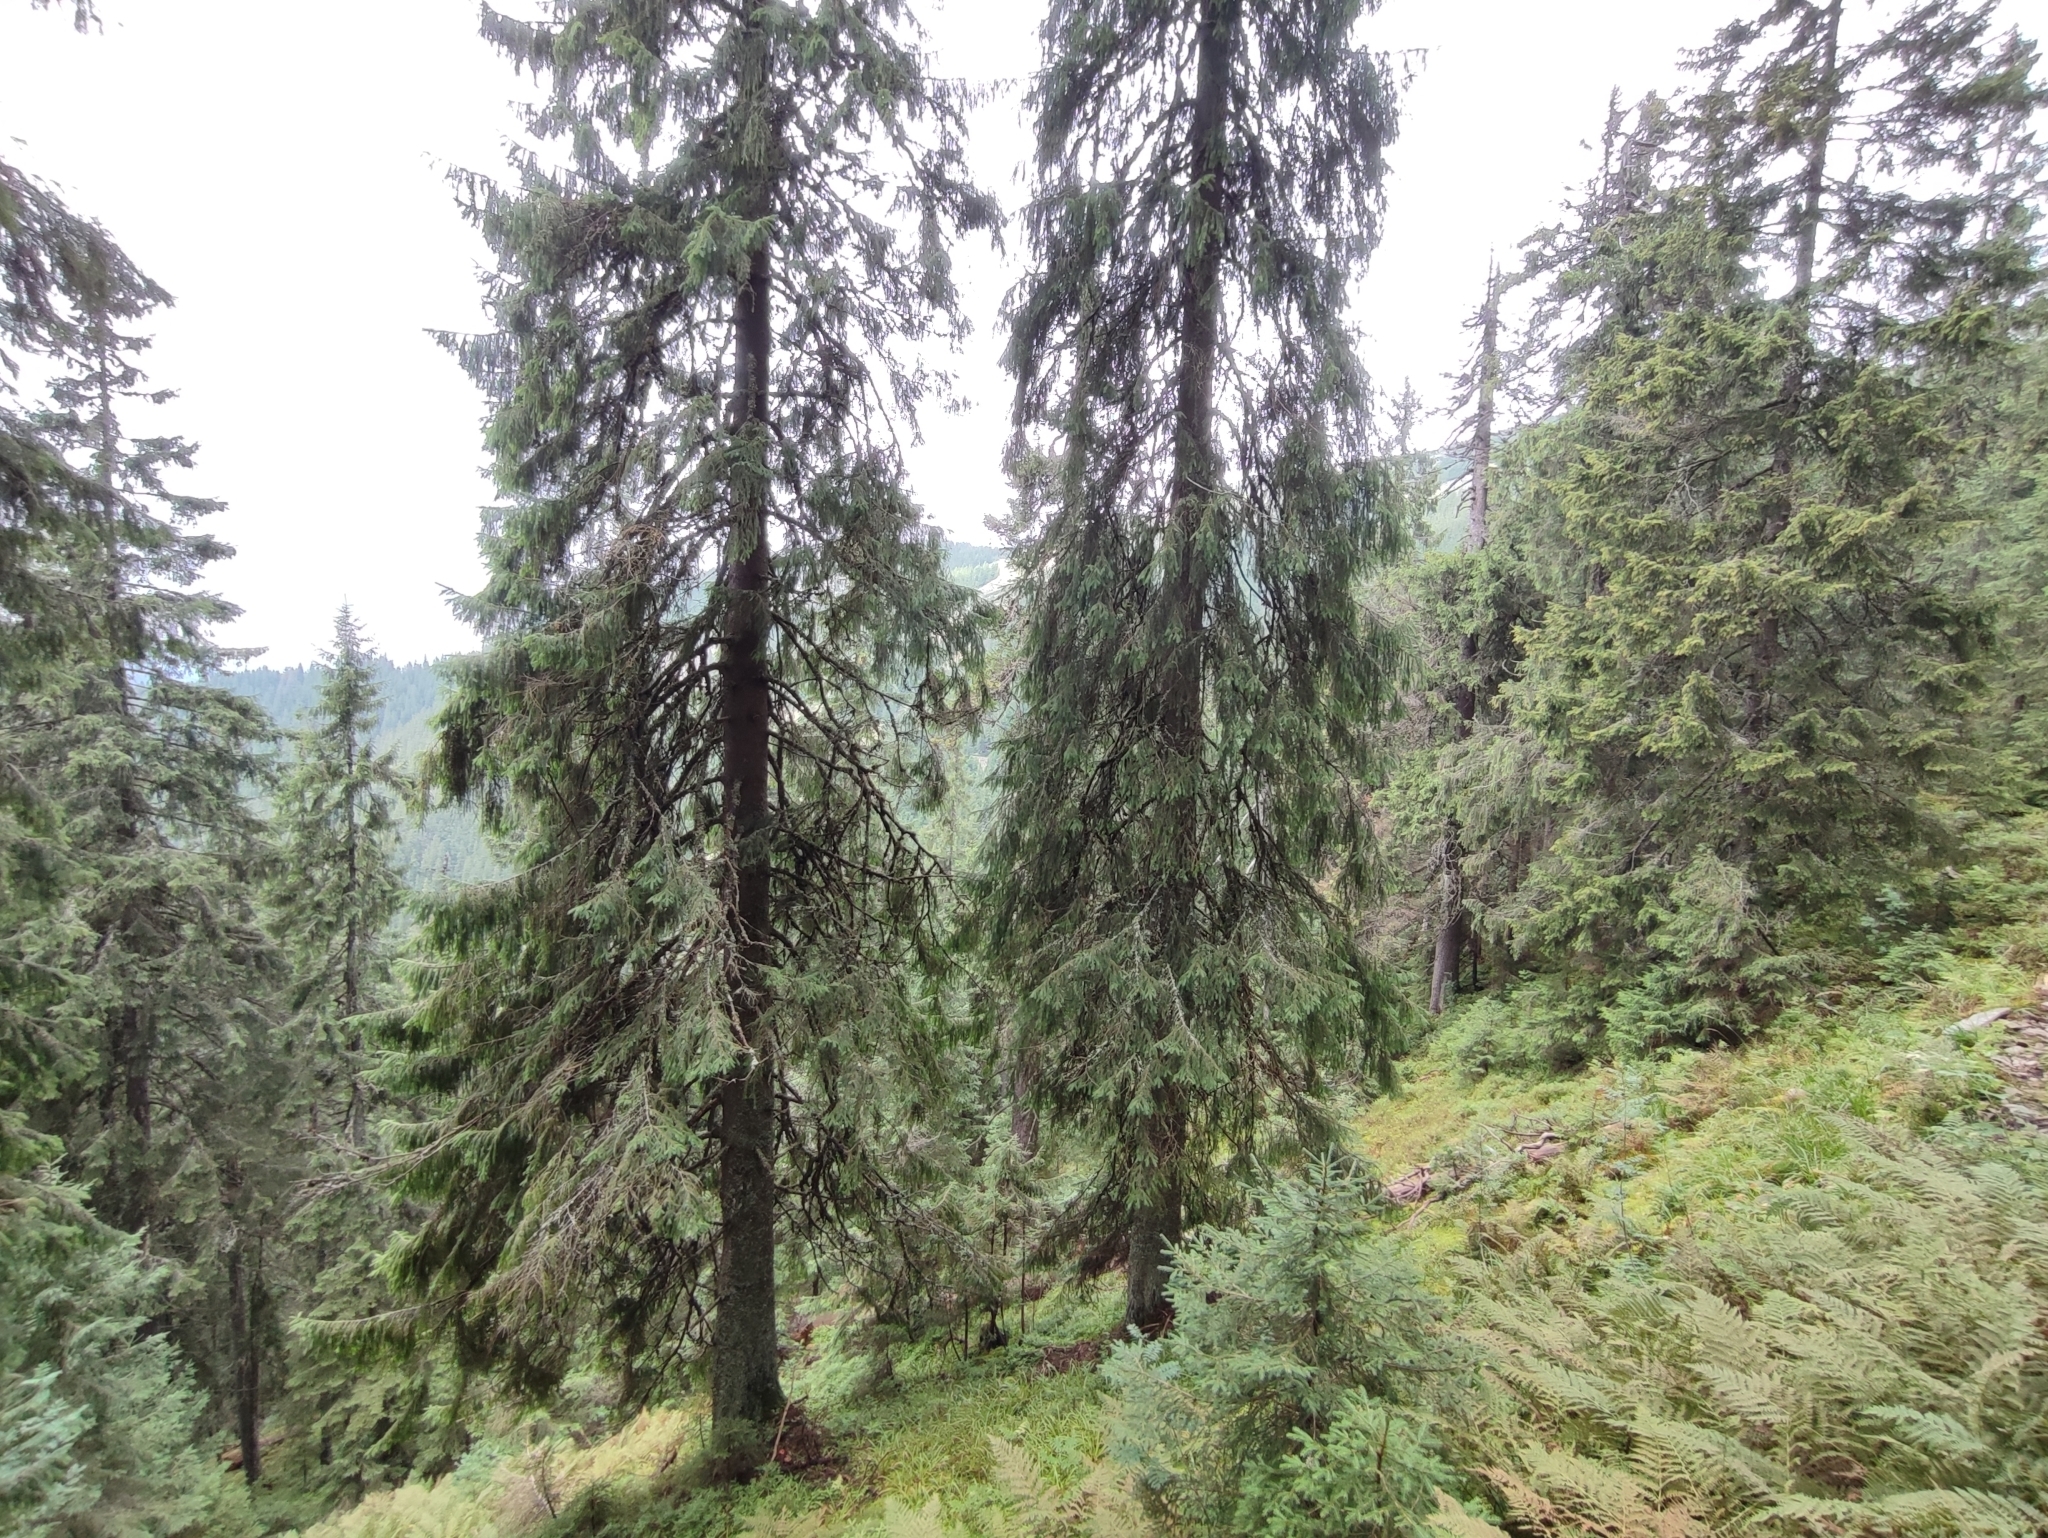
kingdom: Plantae
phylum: Tracheophyta
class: Pinopsida
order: Pinales
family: Pinaceae
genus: Picea
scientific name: Picea abies
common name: Norway spruce
